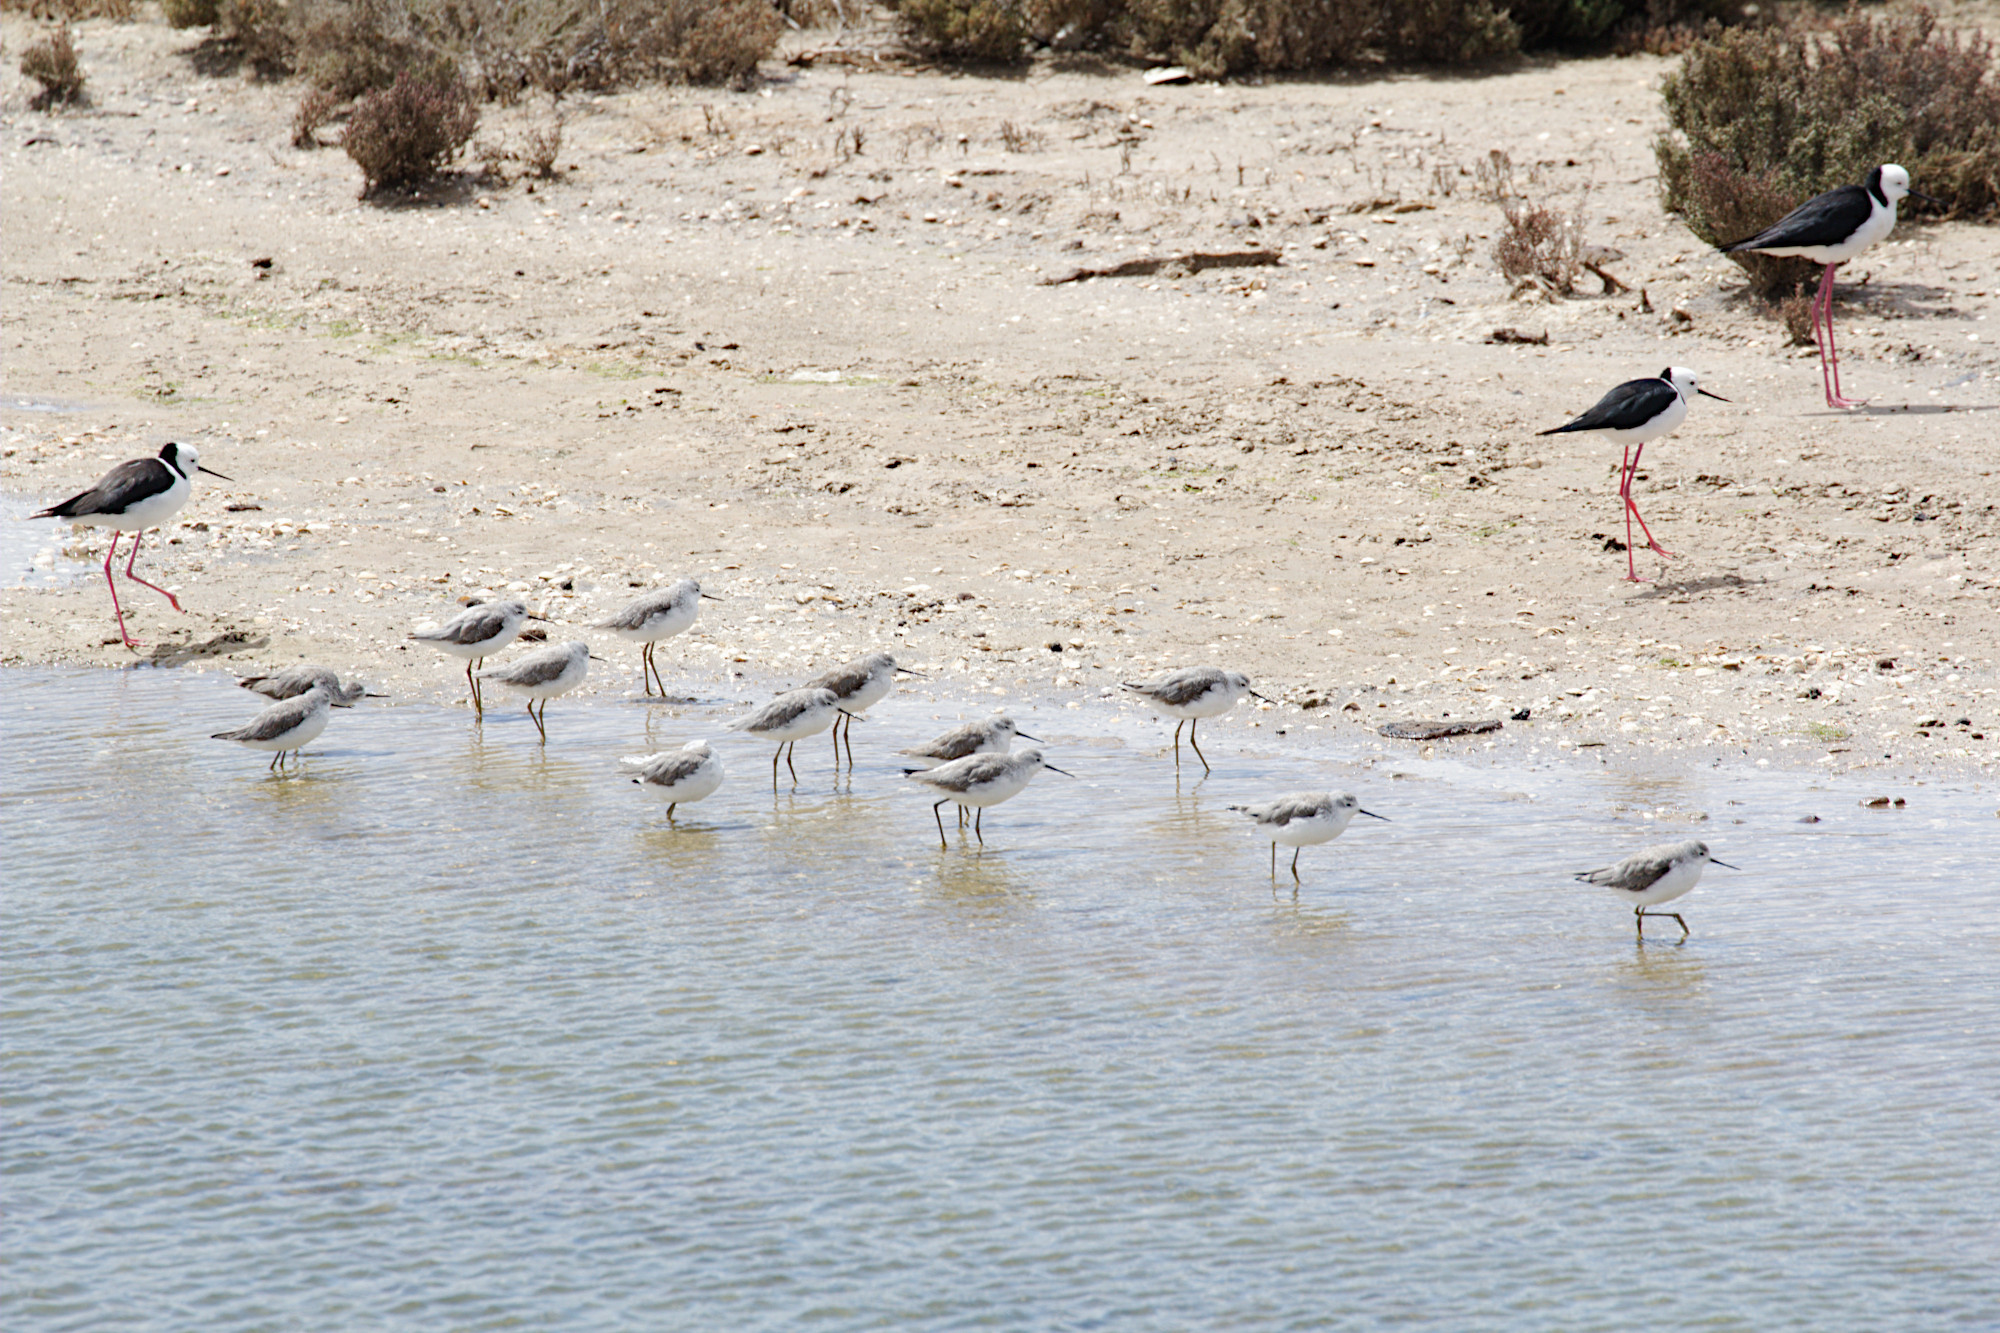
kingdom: Animalia
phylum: Chordata
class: Aves
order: Charadriiformes
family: Scolopacidae
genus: Tringa
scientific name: Tringa stagnatilis
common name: Marsh sandpiper
